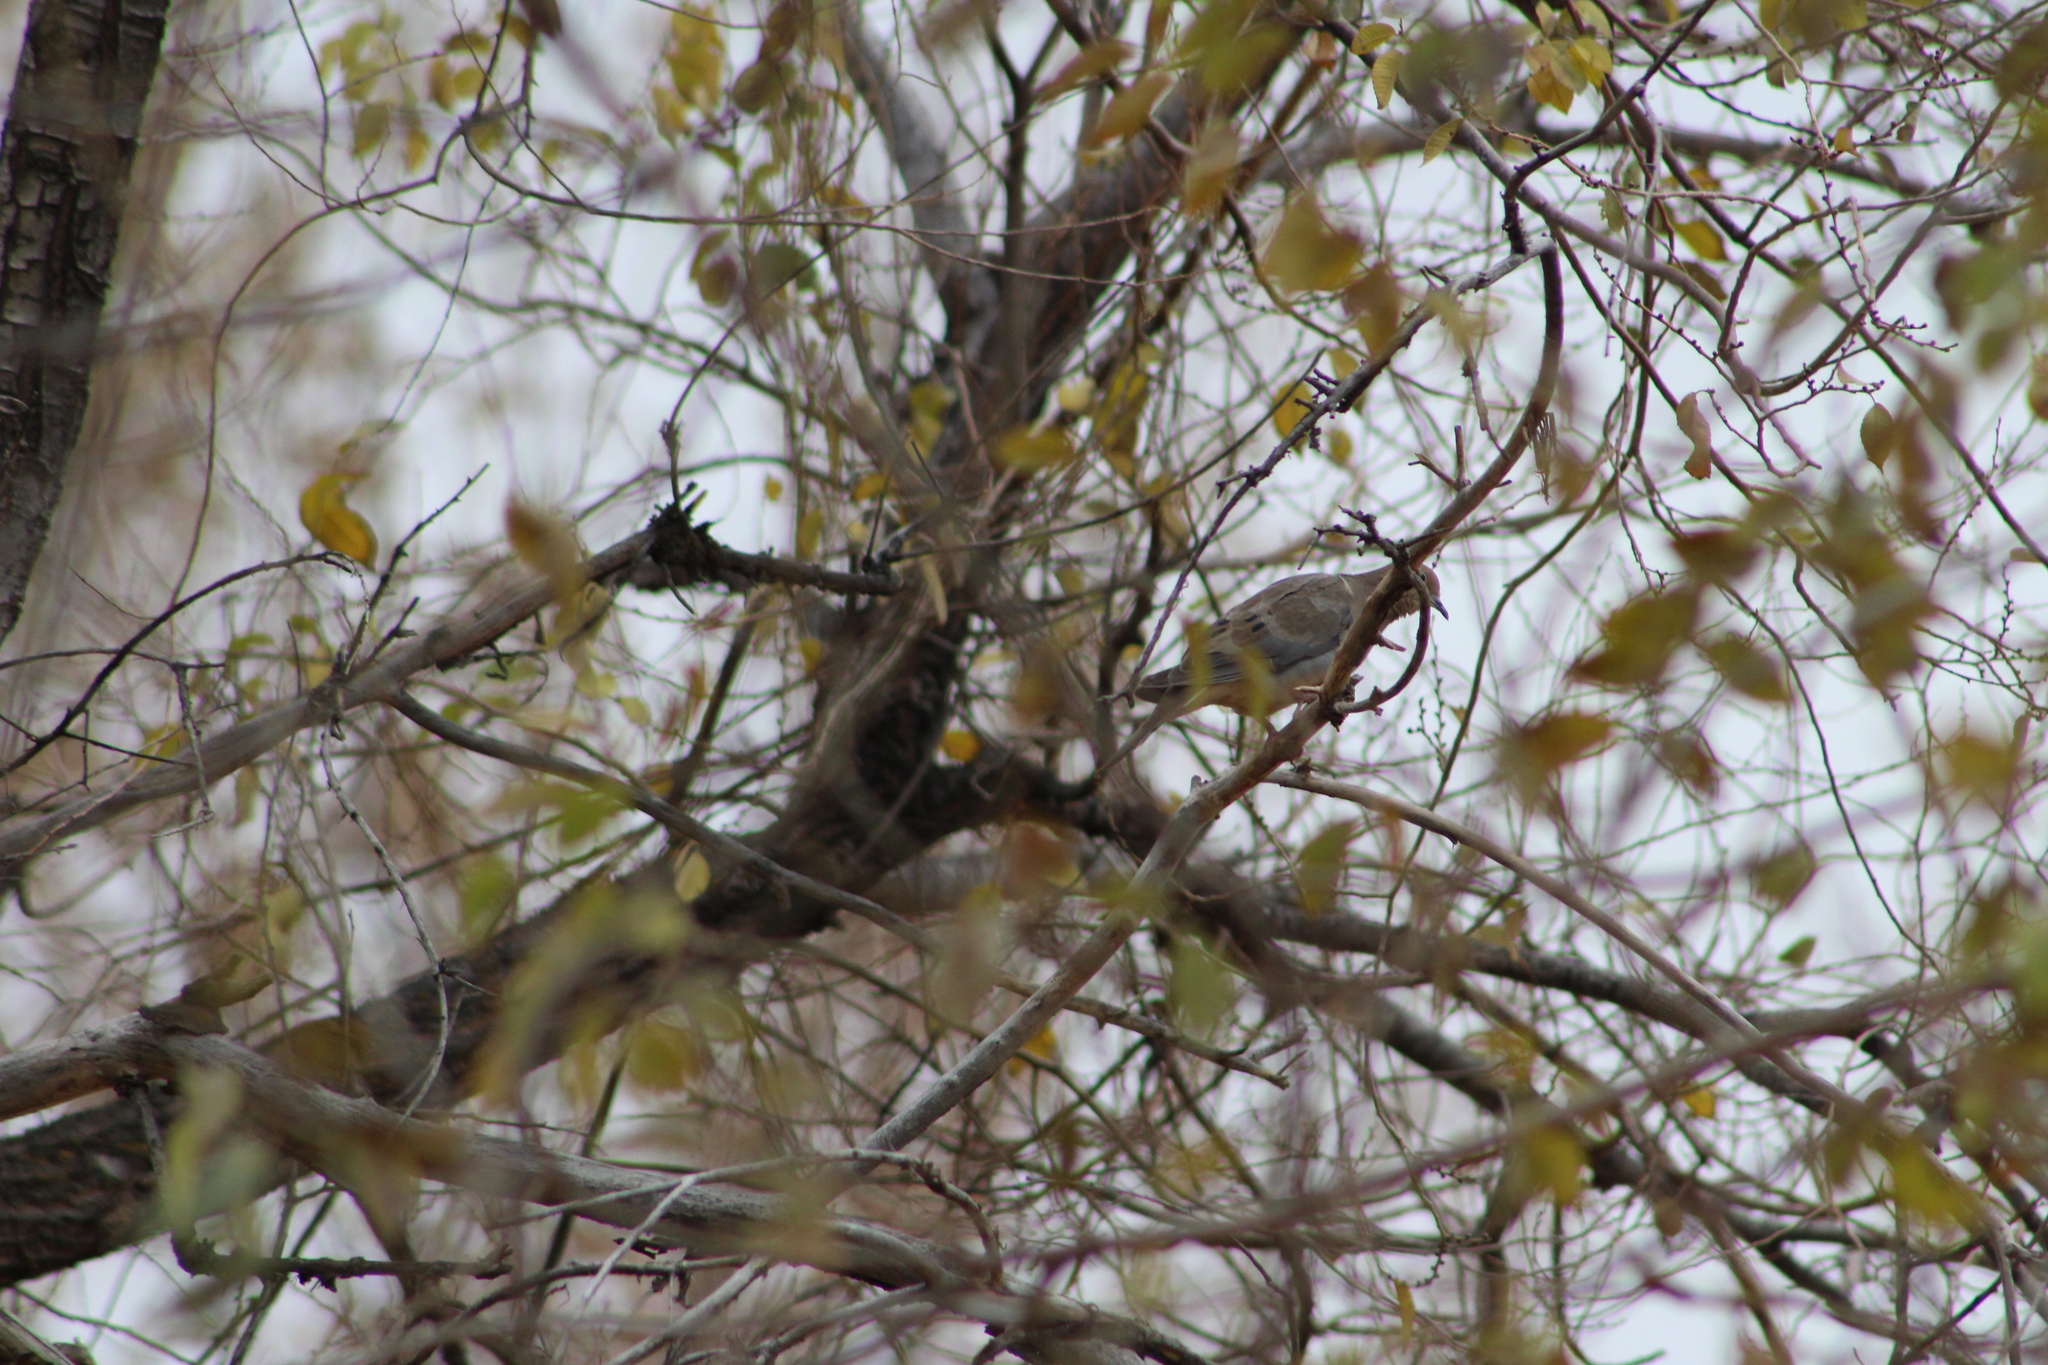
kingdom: Animalia
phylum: Chordata
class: Aves
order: Columbiformes
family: Columbidae
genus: Zenaida
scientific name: Zenaida macroura
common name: Mourning dove
